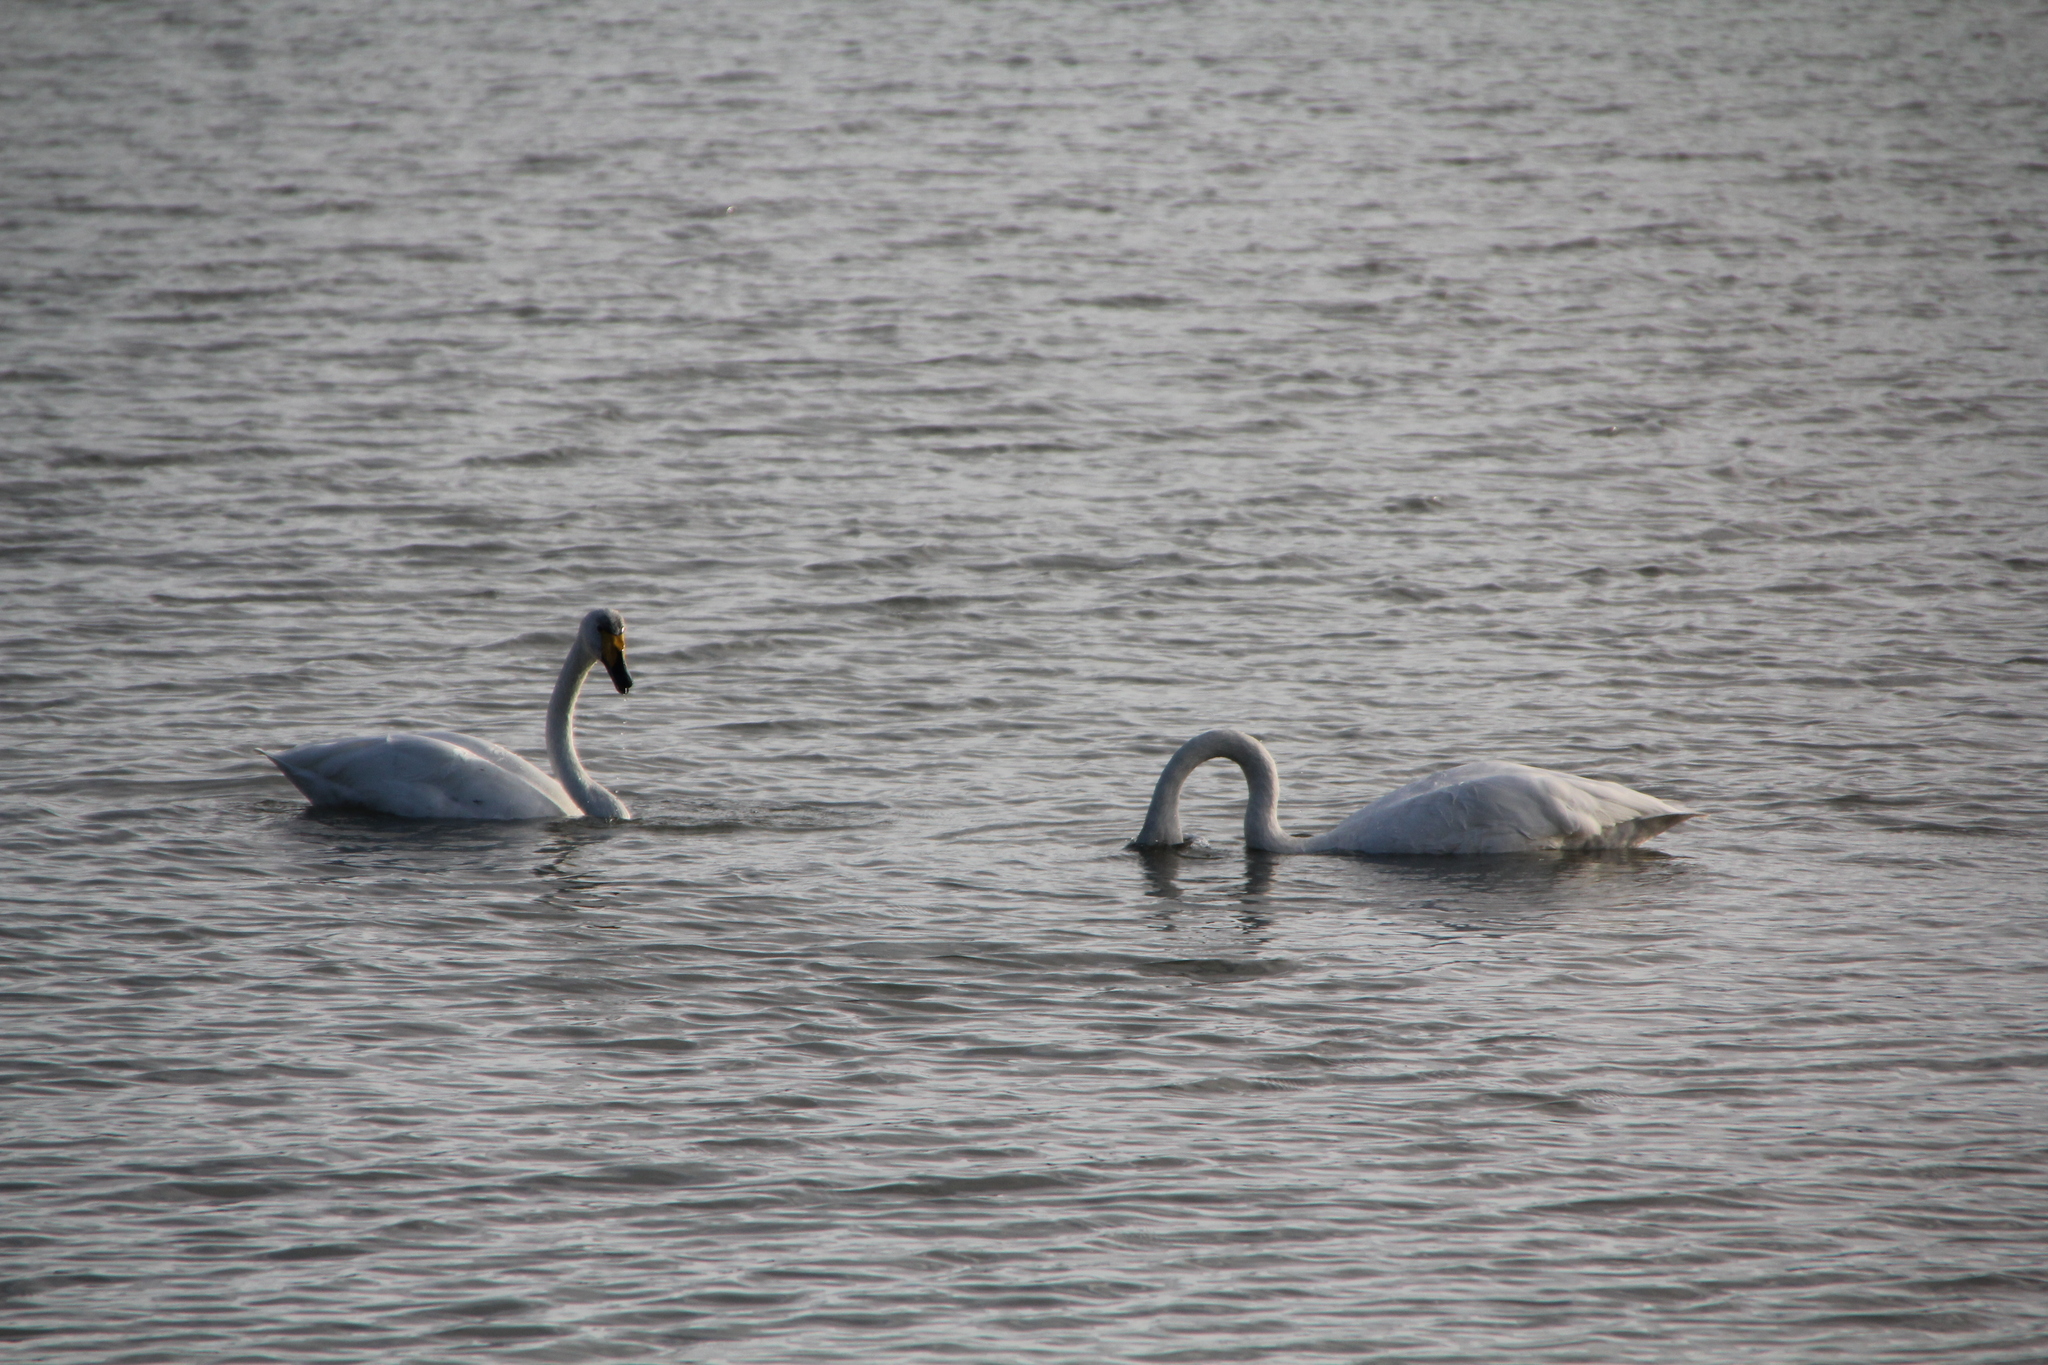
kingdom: Animalia
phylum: Chordata
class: Aves
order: Anseriformes
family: Anatidae
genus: Cygnus
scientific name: Cygnus cygnus
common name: Whooper swan
